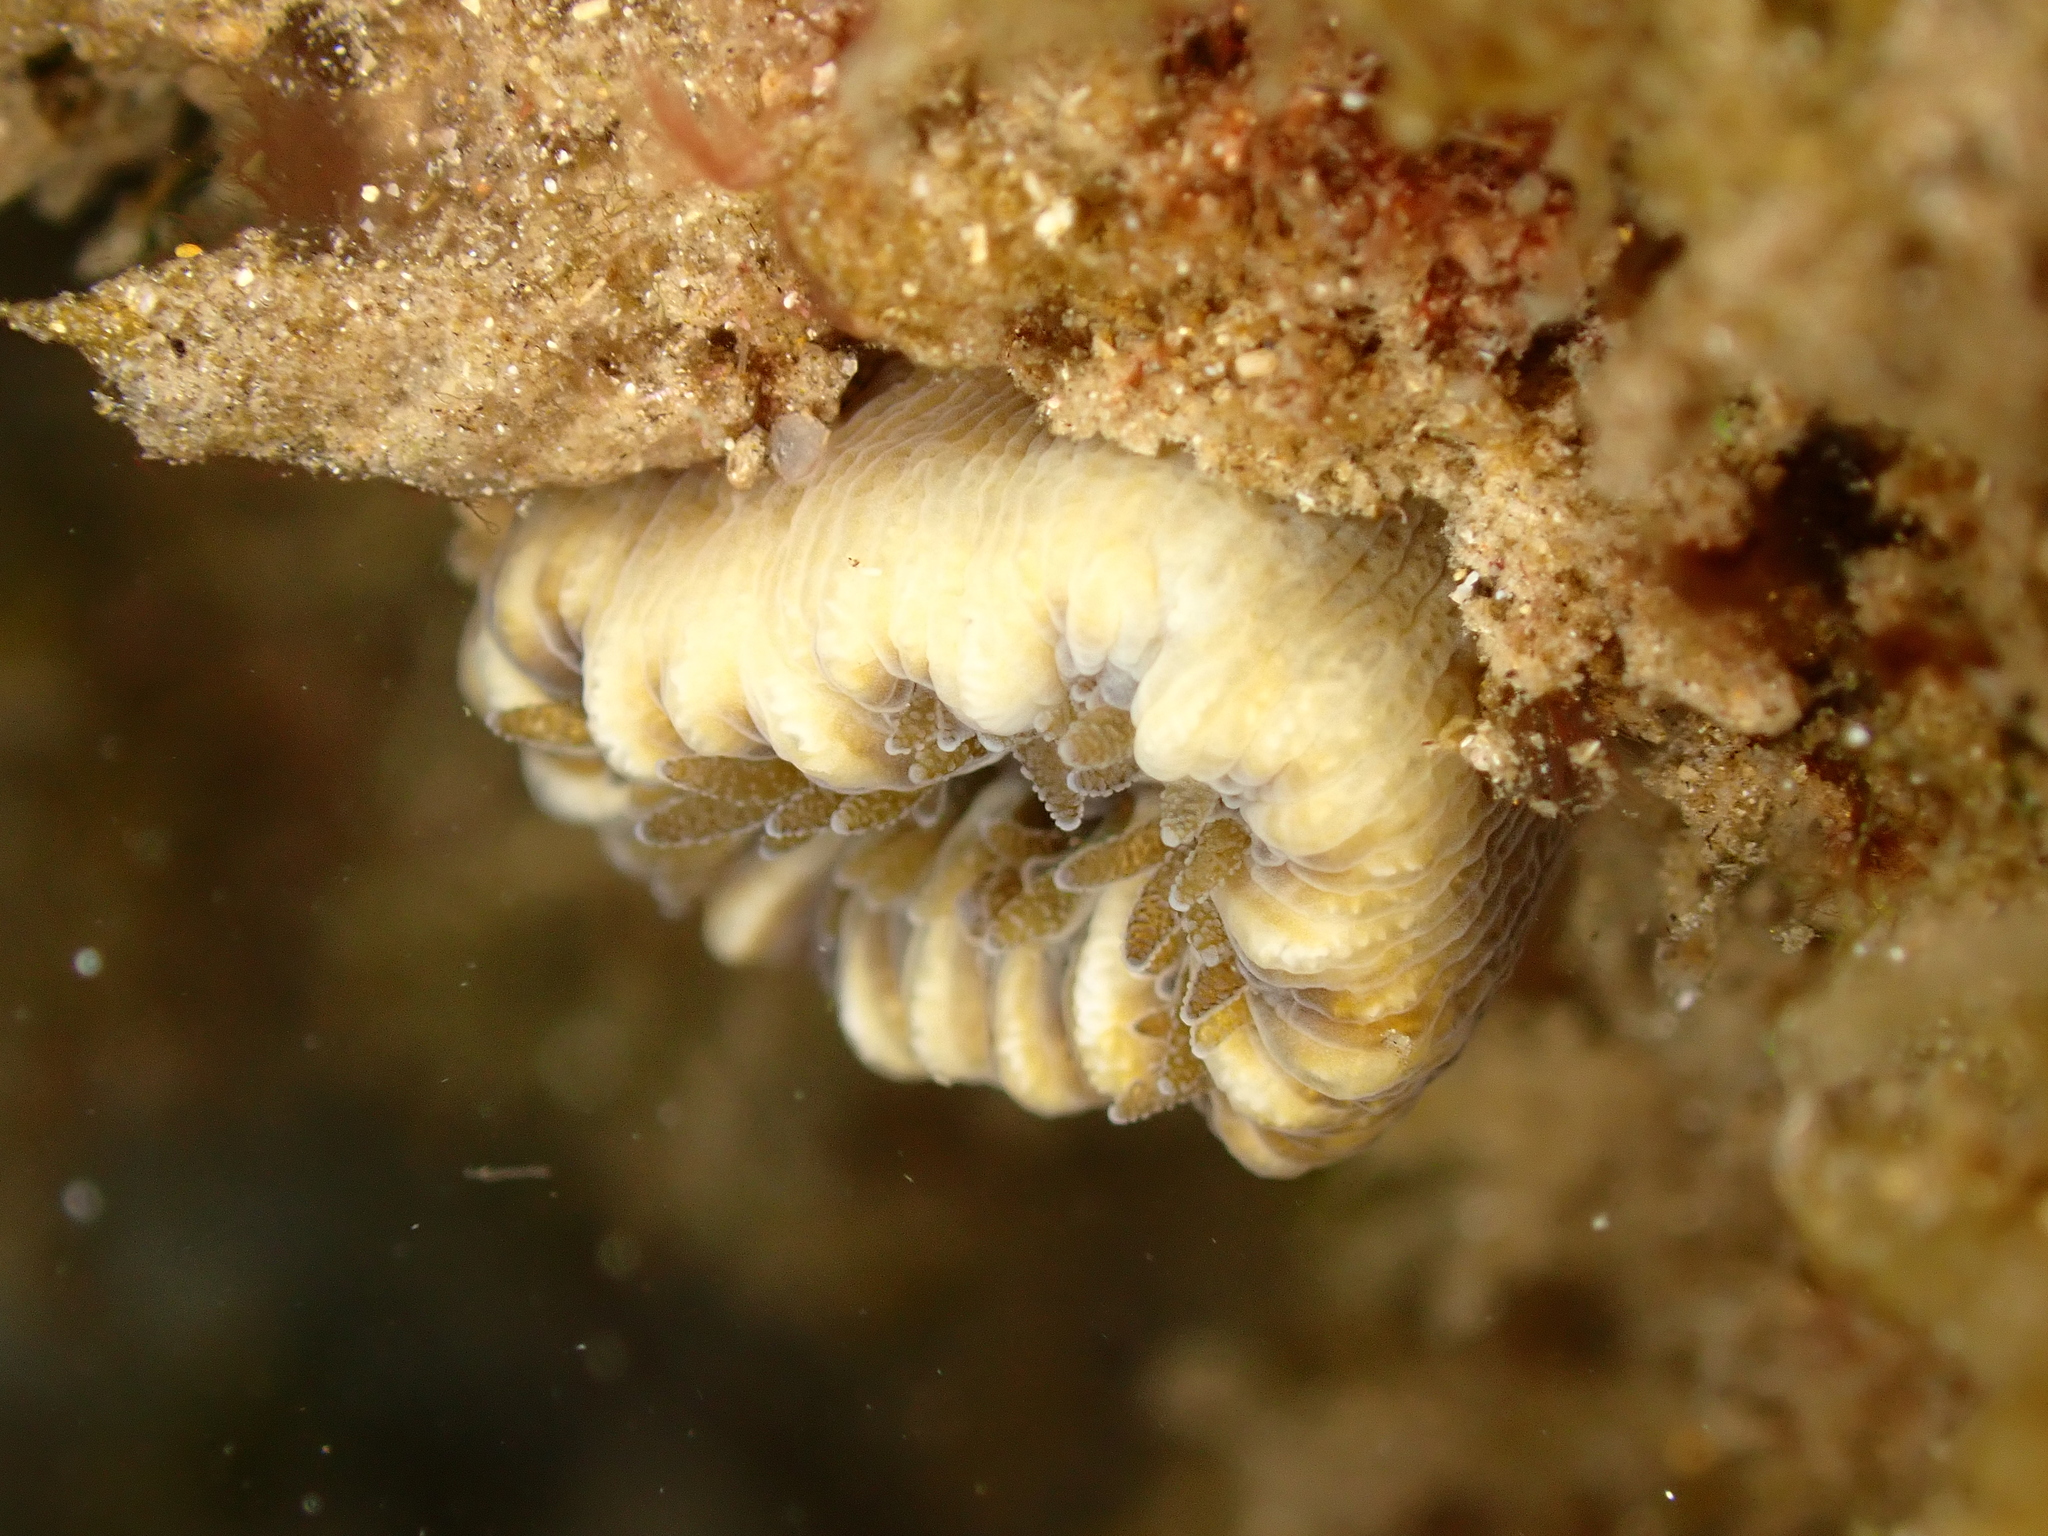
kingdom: Animalia
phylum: Cnidaria
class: Anthozoa
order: Scleractinia
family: Dendrophylliidae
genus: Balanophyllia
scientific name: Balanophyllia europaea
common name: Scarlet coral
